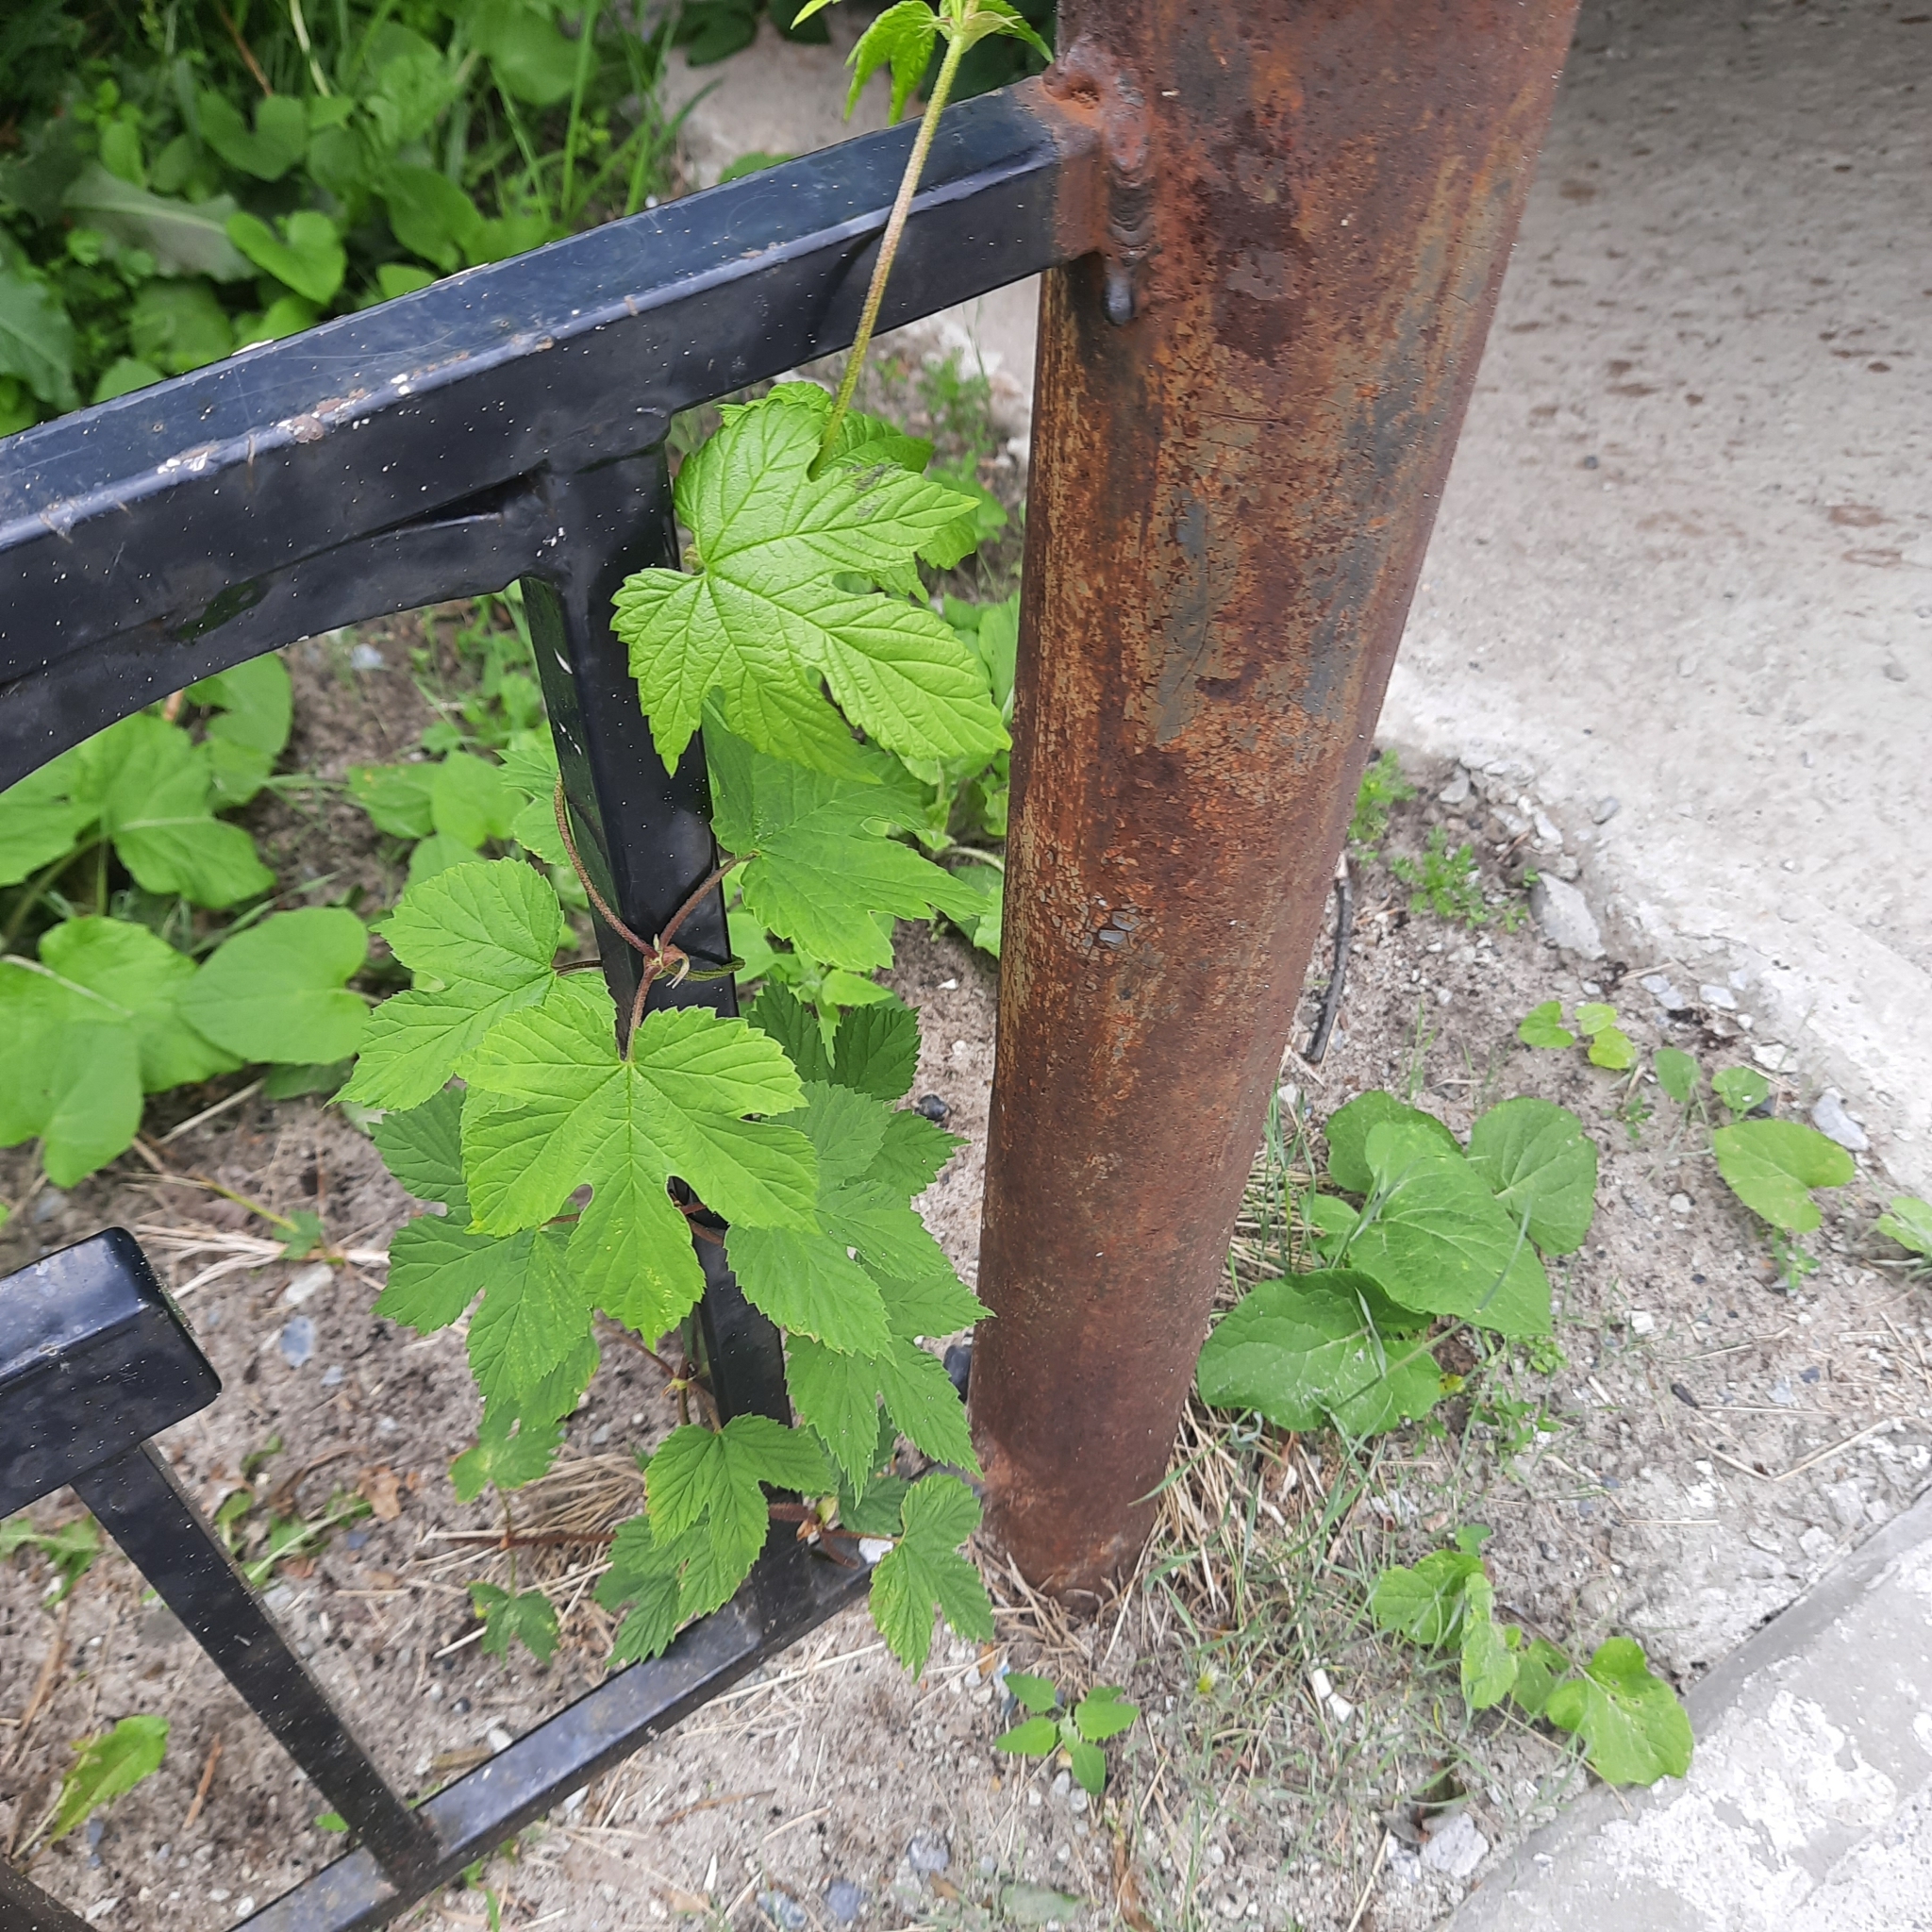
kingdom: Plantae
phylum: Tracheophyta
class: Magnoliopsida
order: Rosales
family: Cannabaceae
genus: Humulus
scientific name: Humulus lupulus
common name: Hop
